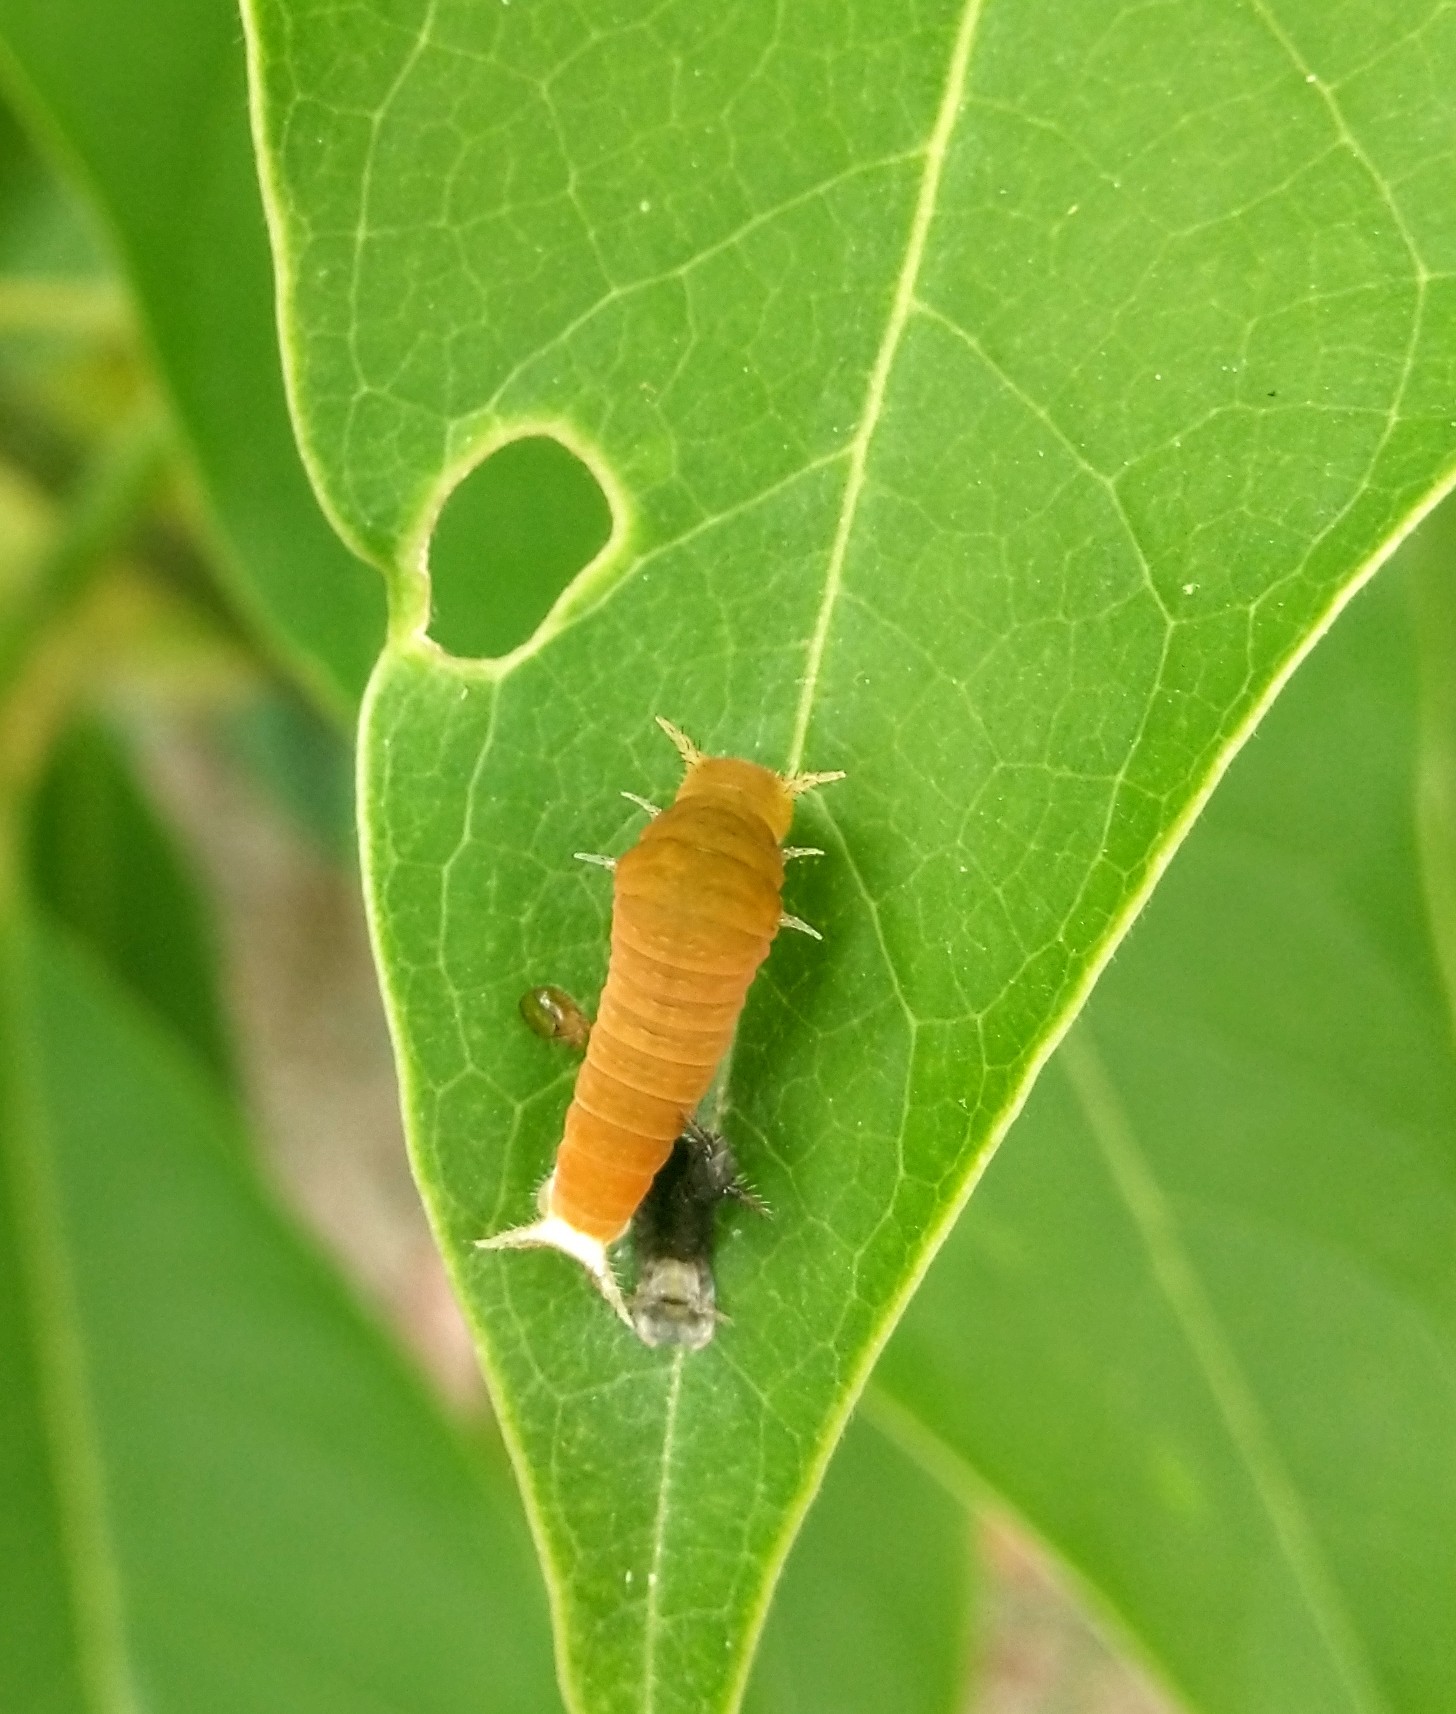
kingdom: Animalia
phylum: Arthropoda
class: Insecta
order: Lepidoptera
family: Papilionidae
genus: Graphium
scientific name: Graphium doson
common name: Common jay
